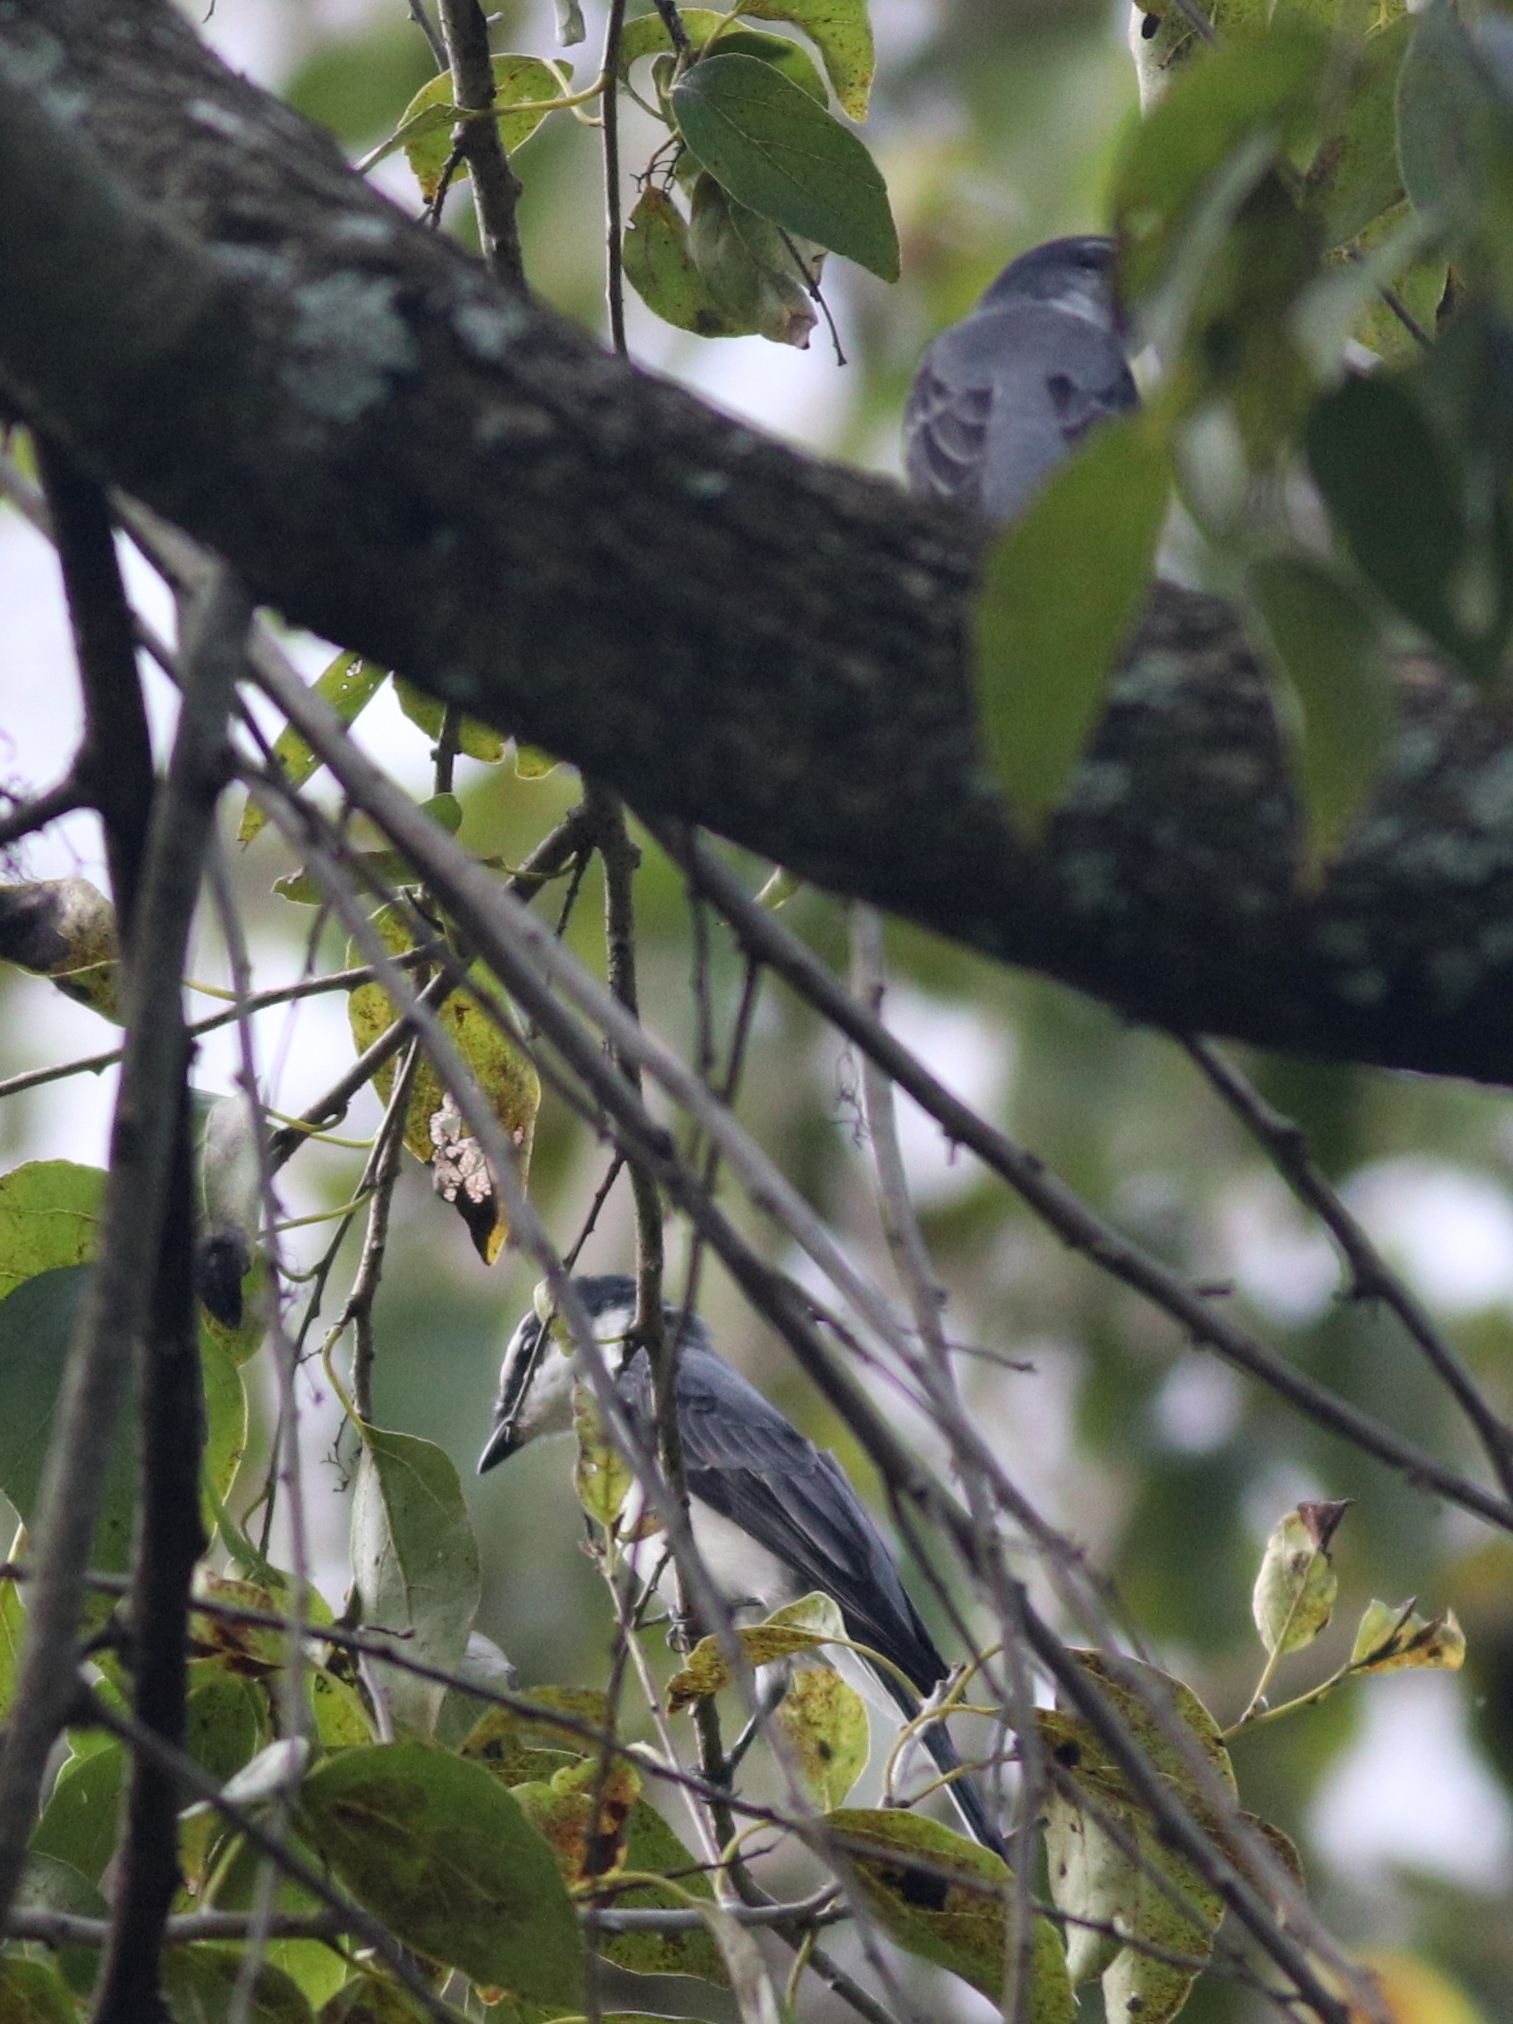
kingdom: Animalia
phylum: Chordata
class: Aves
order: Passeriformes
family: Campephagidae
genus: Pericrocotus
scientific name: Pericrocotus divaricatus
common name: Ashy minivet
